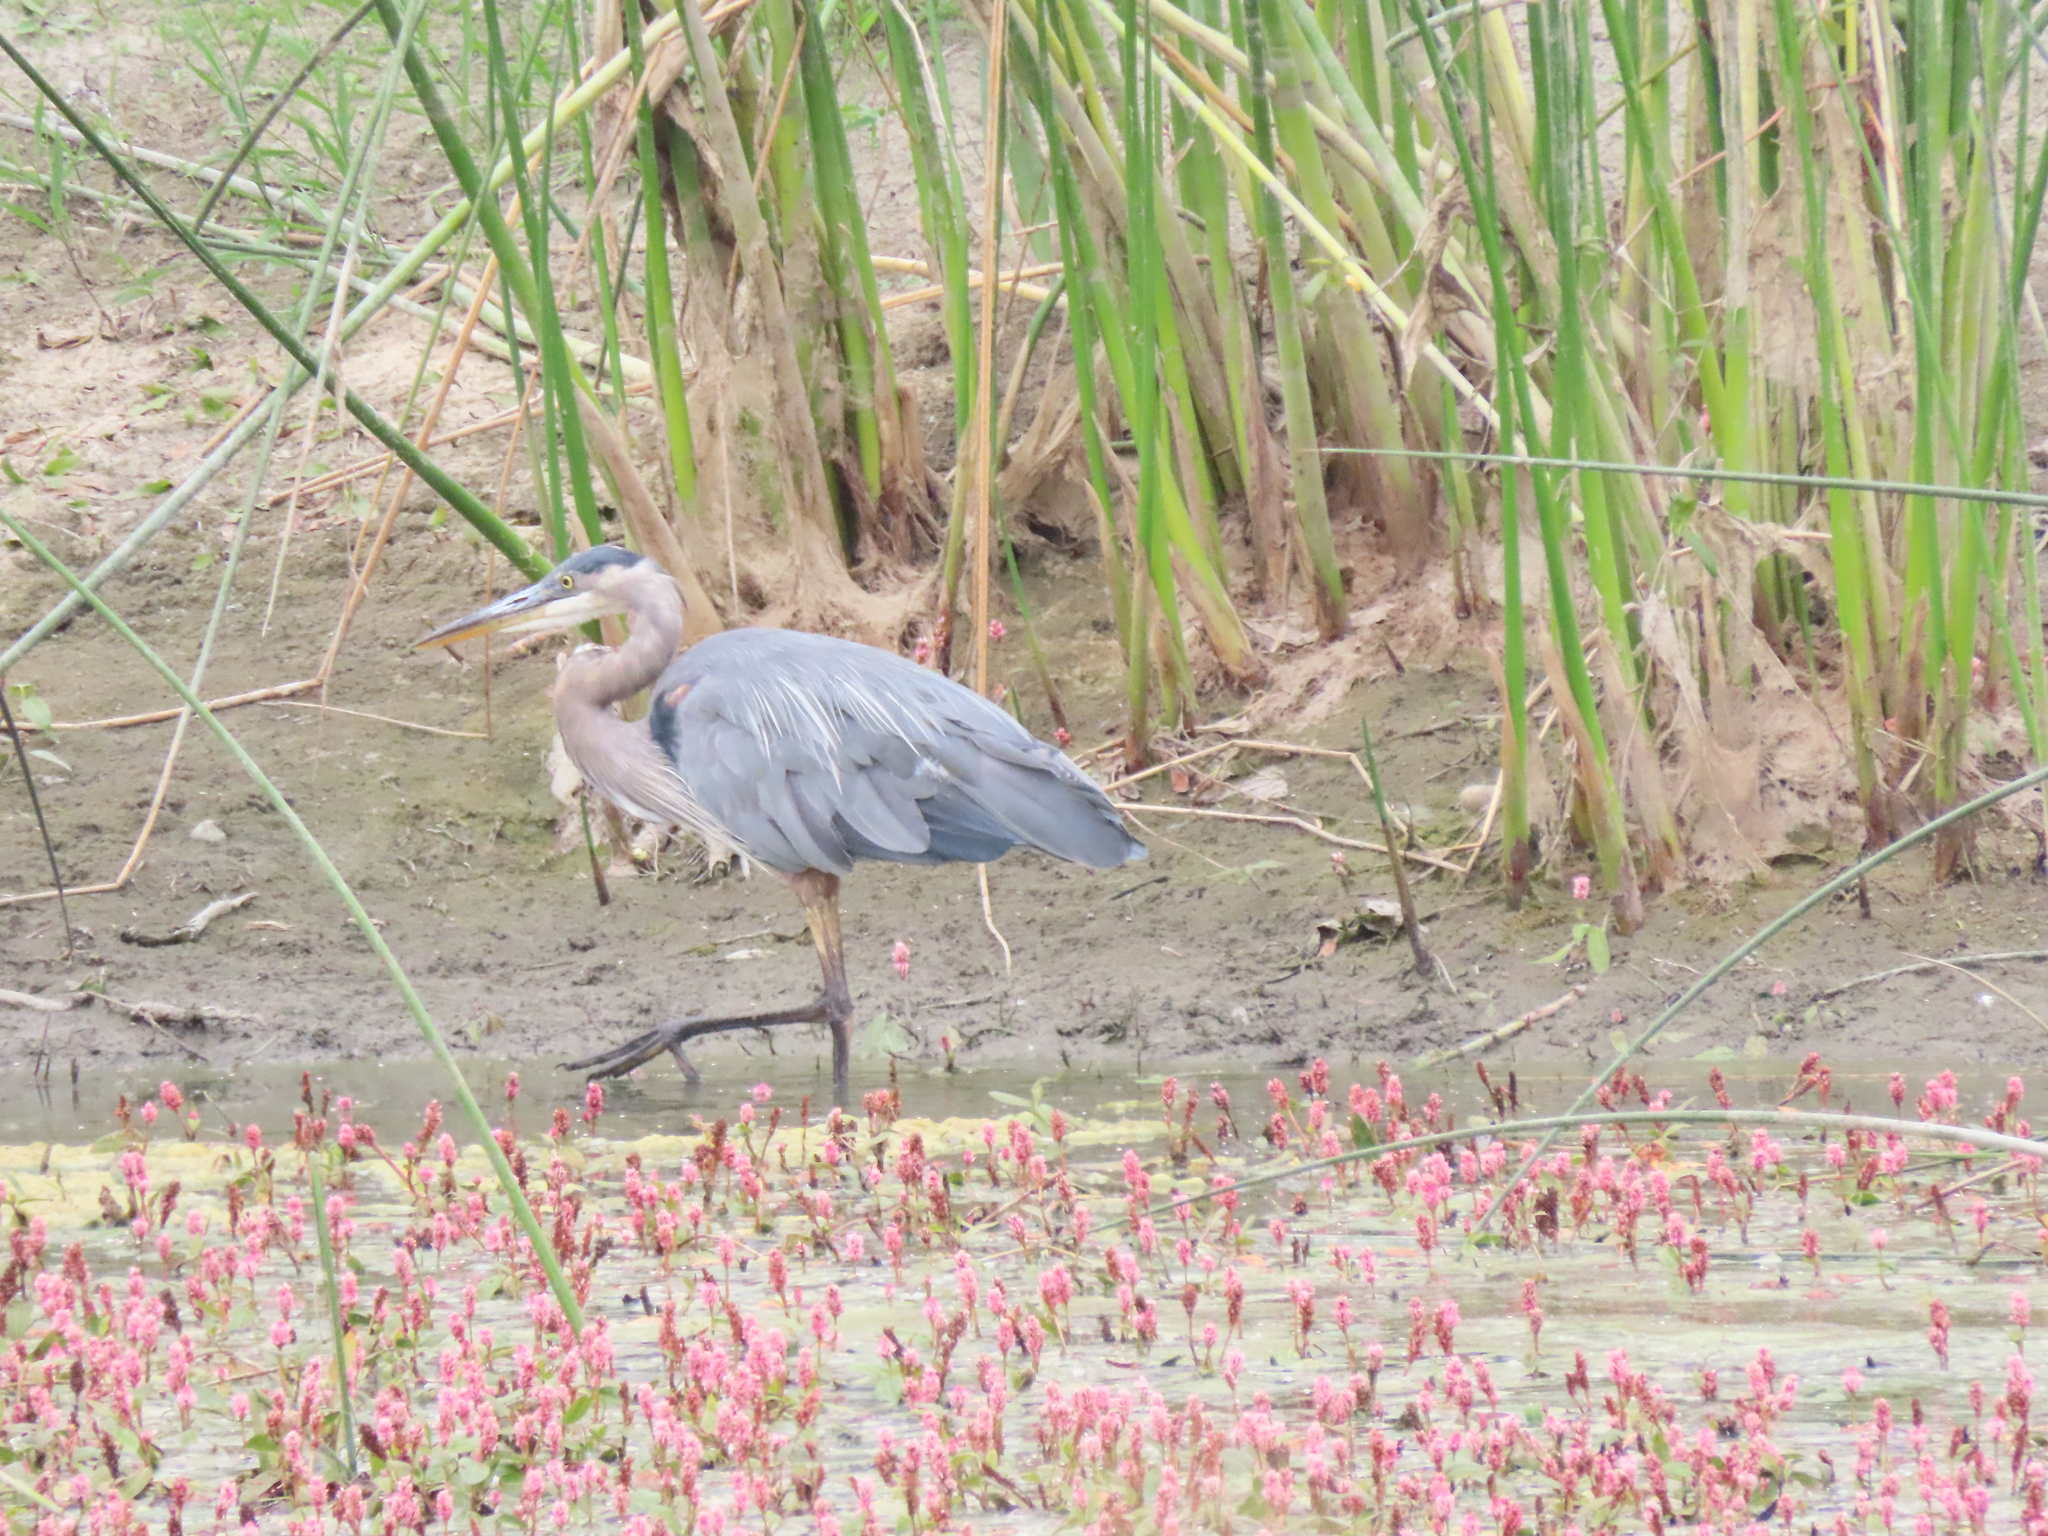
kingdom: Animalia
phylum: Chordata
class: Aves
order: Pelecaniformes
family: Ardeidae
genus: Ardea
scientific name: Ardea herodias
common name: Great blue heron
